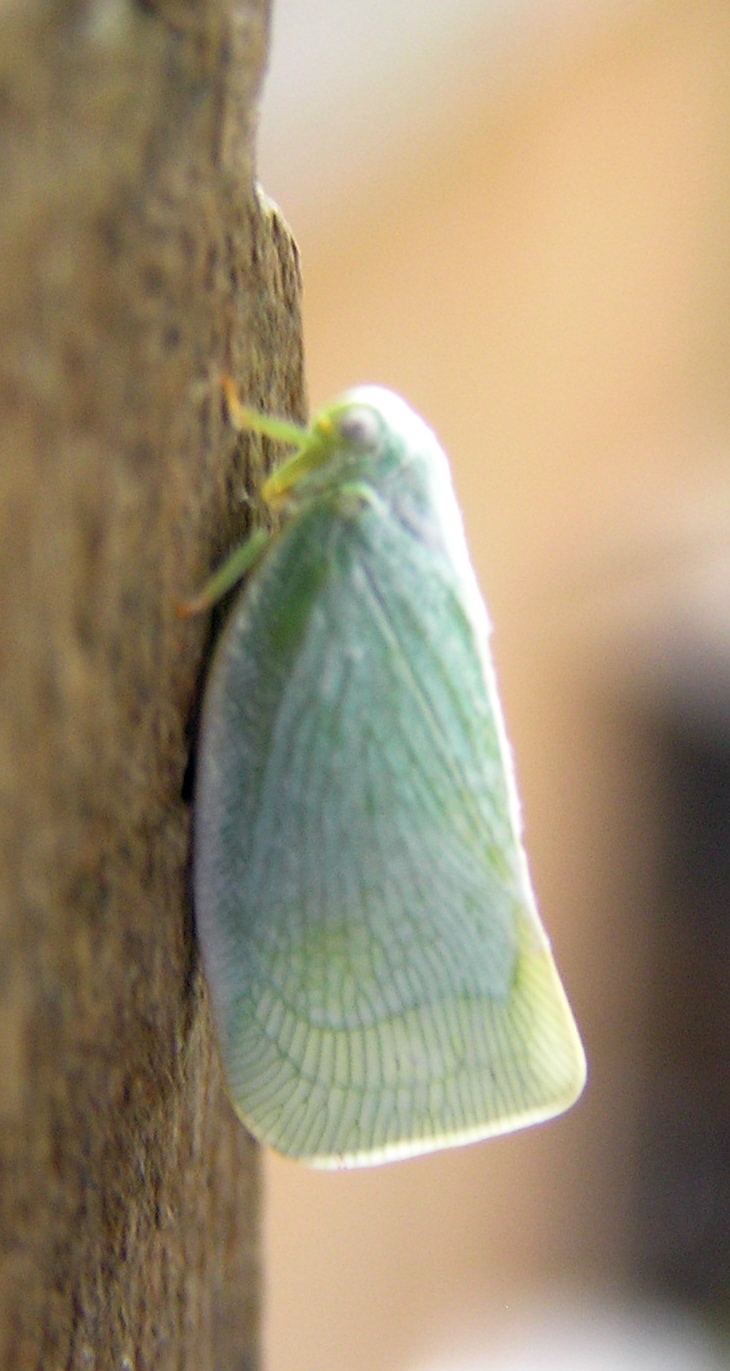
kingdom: Animalia
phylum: Arthropoda
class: Insecta
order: Hemiptera
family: Flatidae
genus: Flatormenis
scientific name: Flatormenis proxima
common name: Northern flatid planthopper
